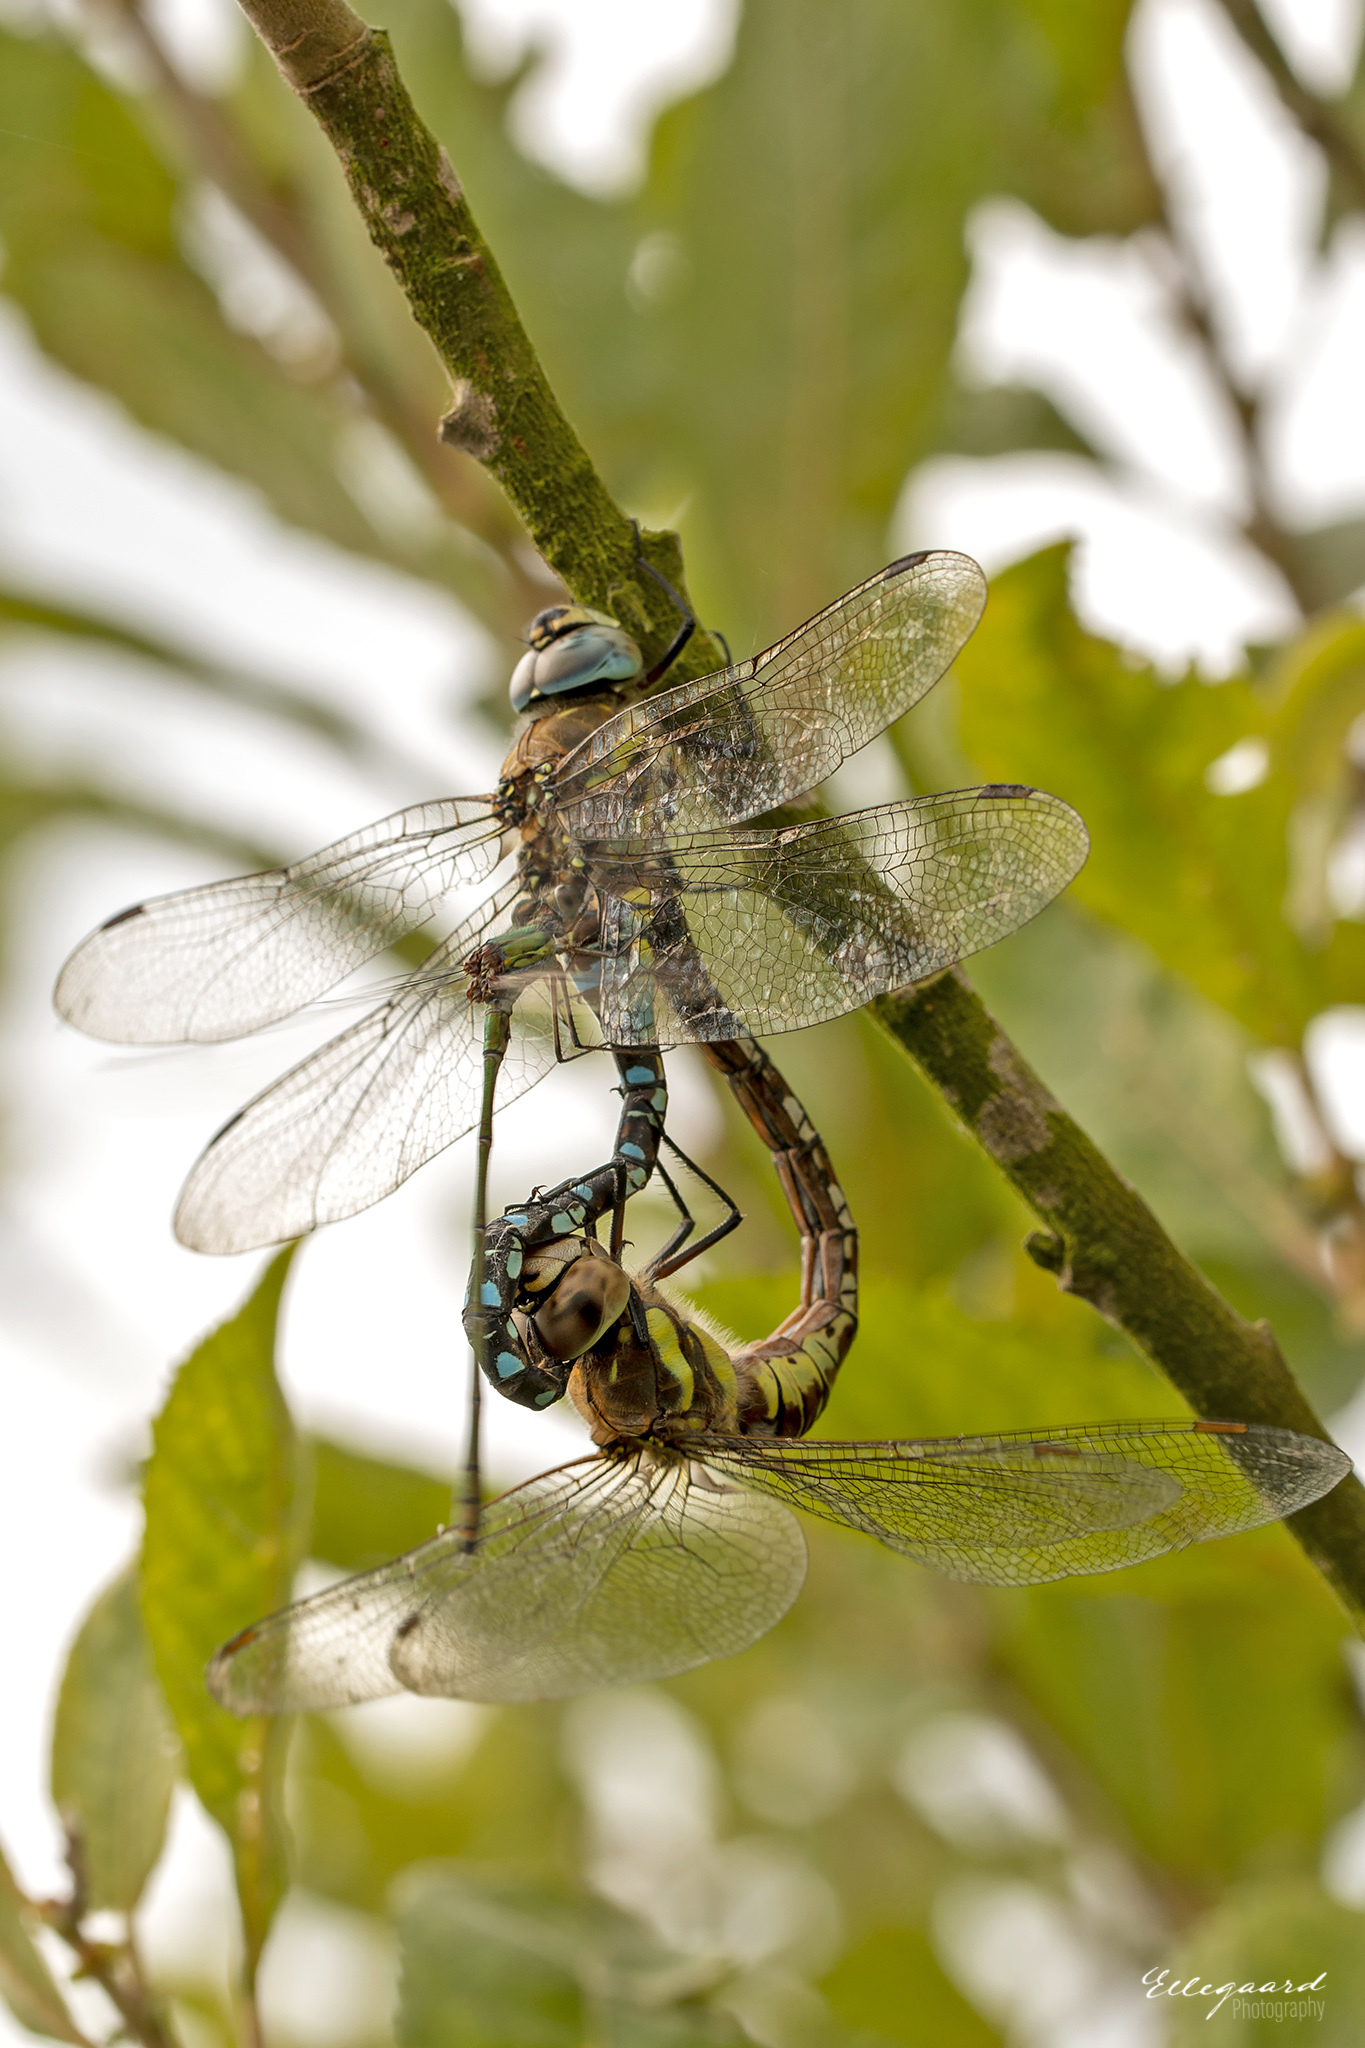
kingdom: Animalia
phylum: Arthropoda
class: Insecta
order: Odonata
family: Aeshnidae
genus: Aeshna
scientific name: Aeshna mixta
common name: Migrant hawker
